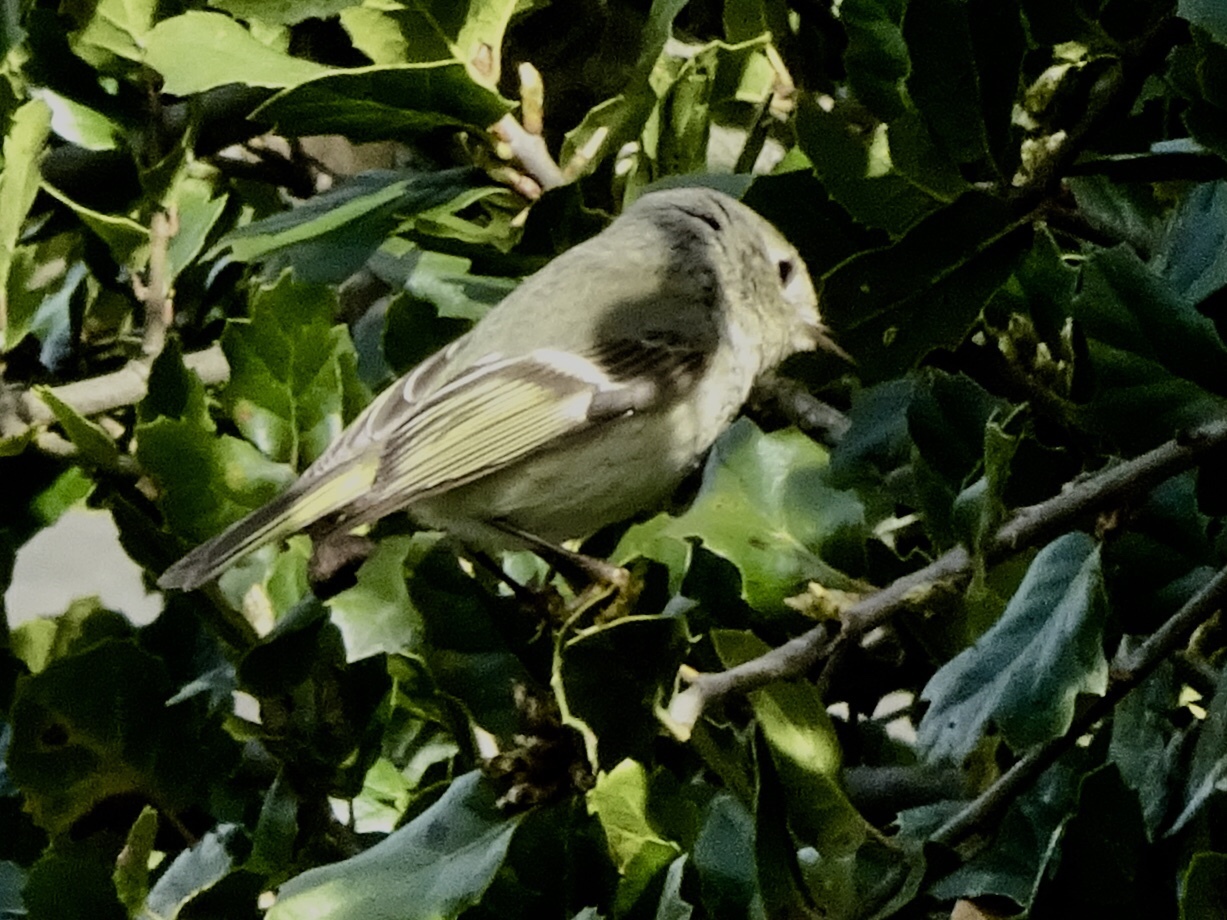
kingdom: Animalia
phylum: Chordata
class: Aves
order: Passeriformes
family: Regulidae
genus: Regulus
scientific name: Regulus calendula
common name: Ruby-crowned kinglet
